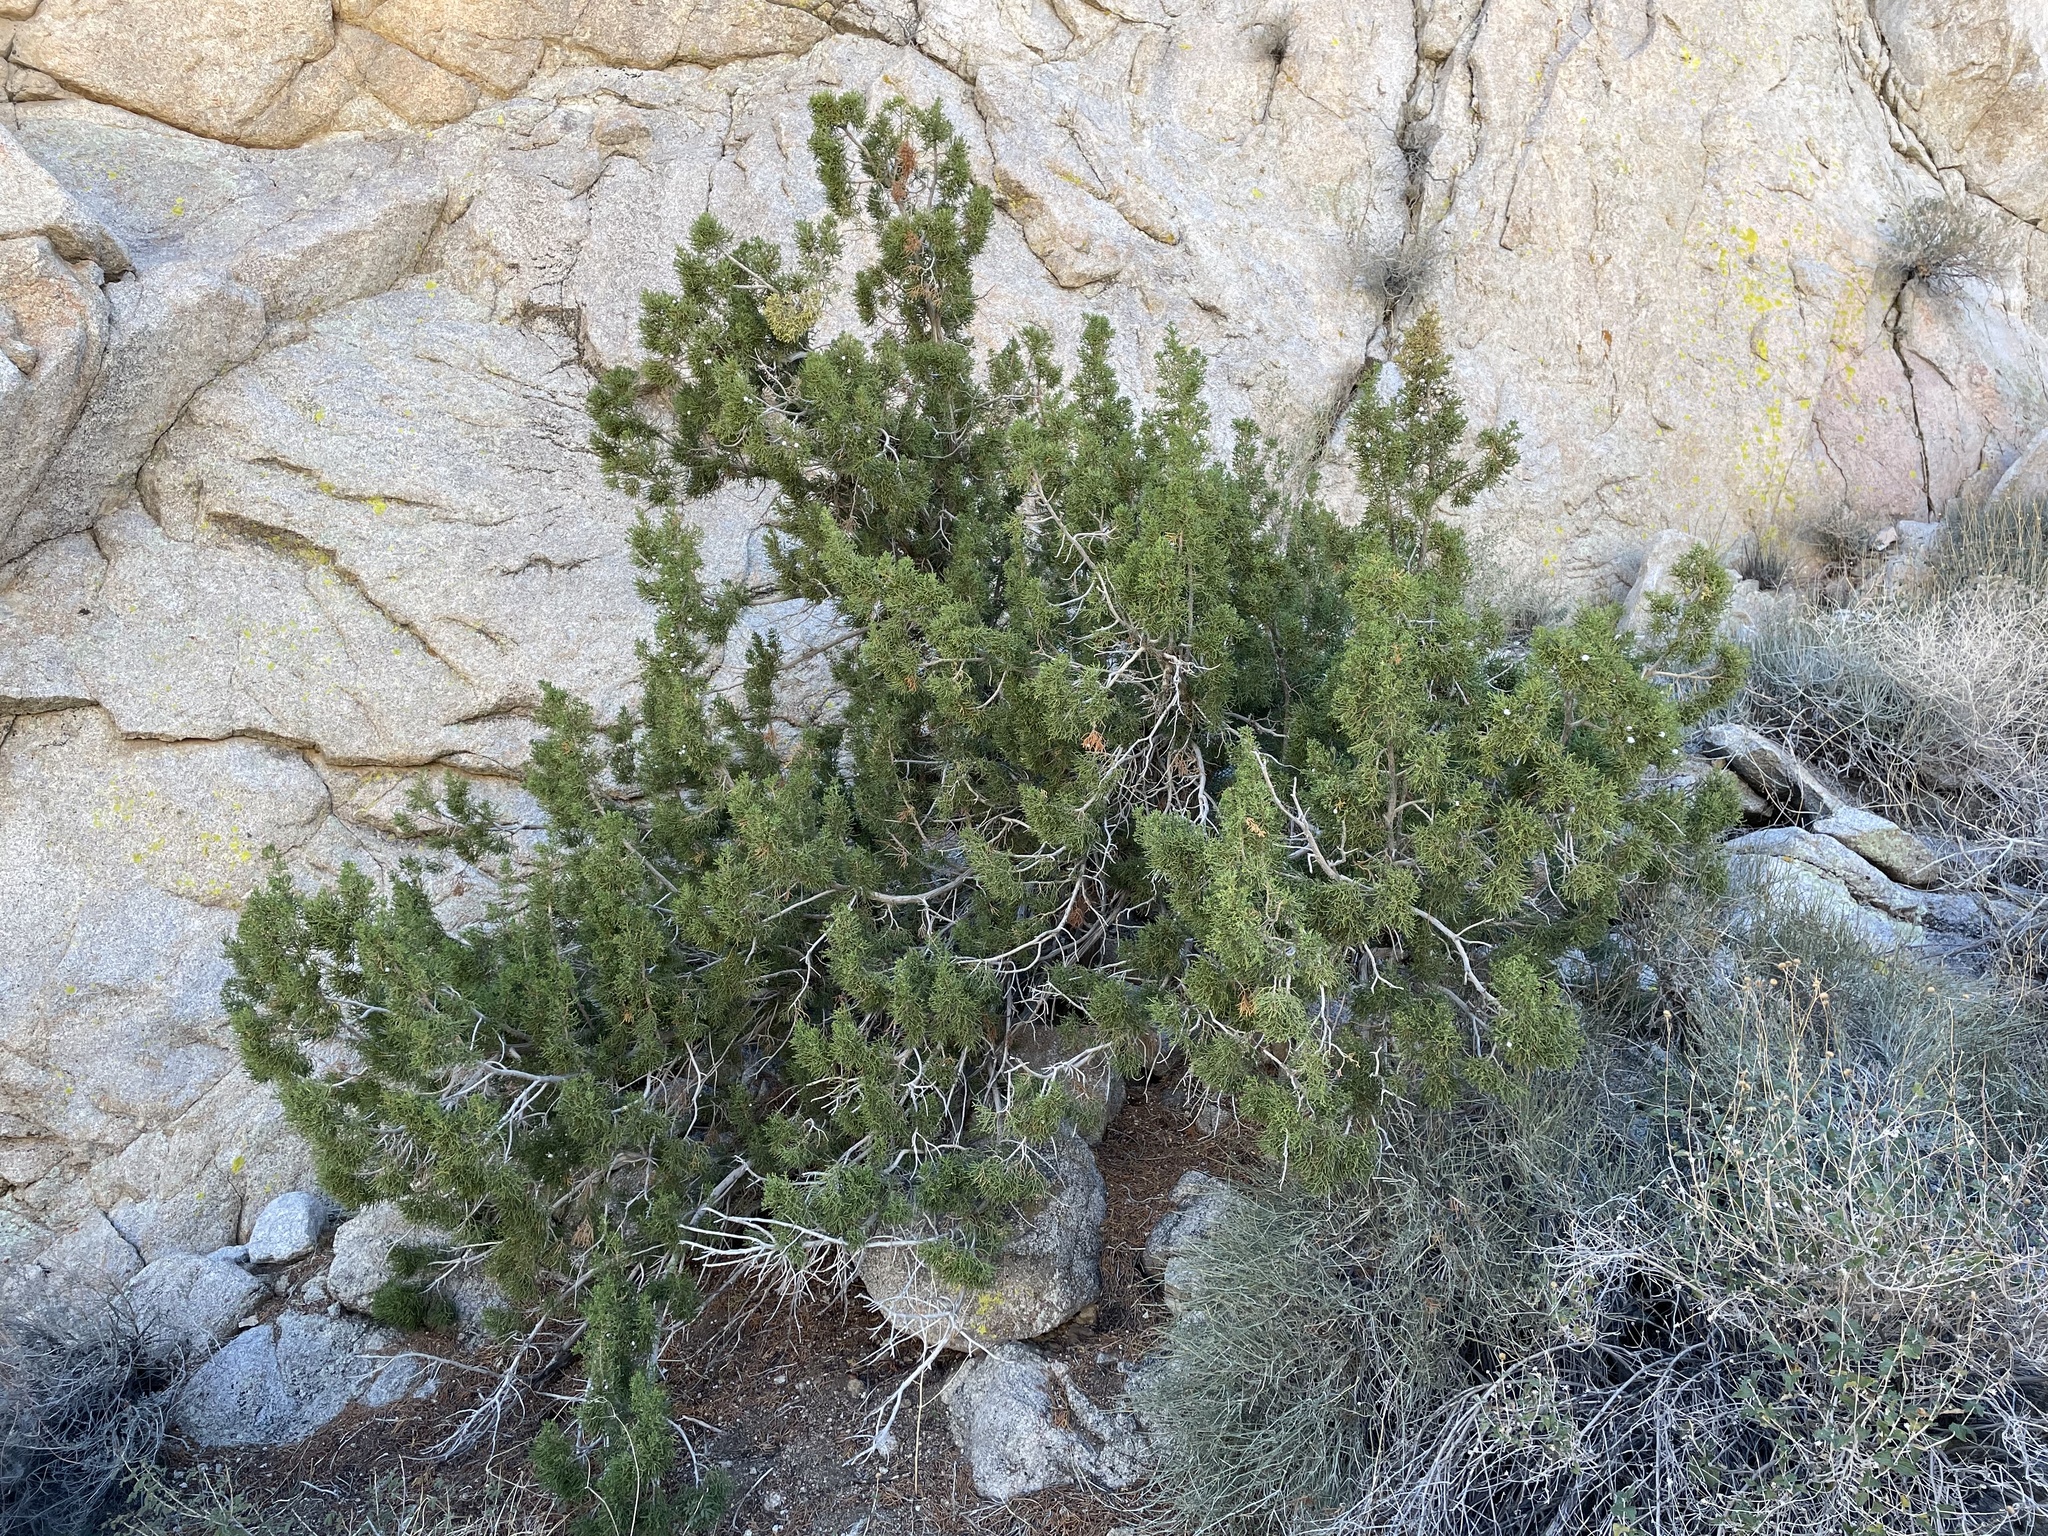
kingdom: Plantae
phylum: Tracheophyta
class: Pinopsida
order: Pinales
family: Cupressaceae
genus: Juniperus
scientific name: Juniperus californica
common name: California juniper
